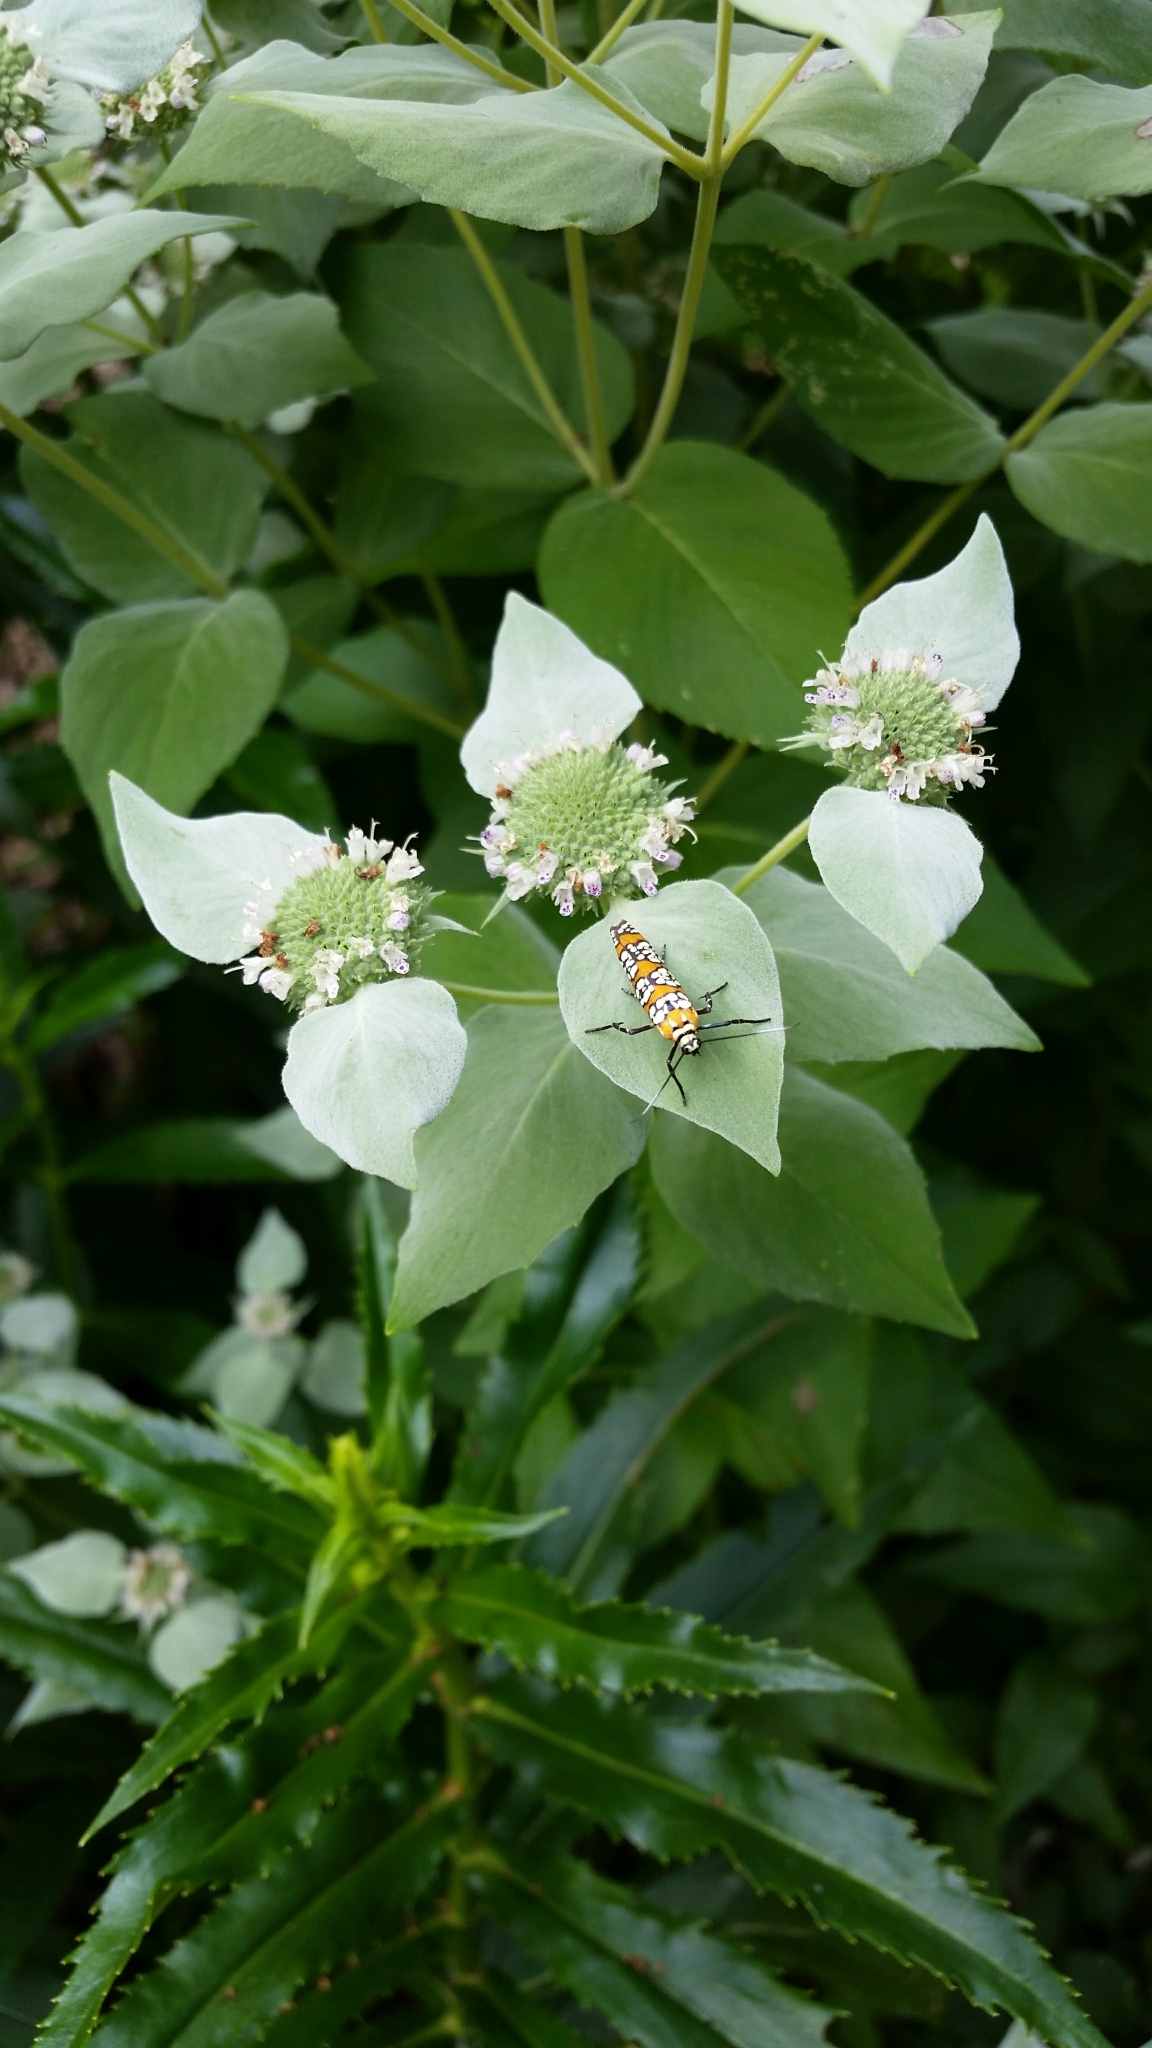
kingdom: Animalia
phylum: Arthropoda
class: Insecta
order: Lepidoptera
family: Attevidae
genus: Atteva
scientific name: Atteva punctella
